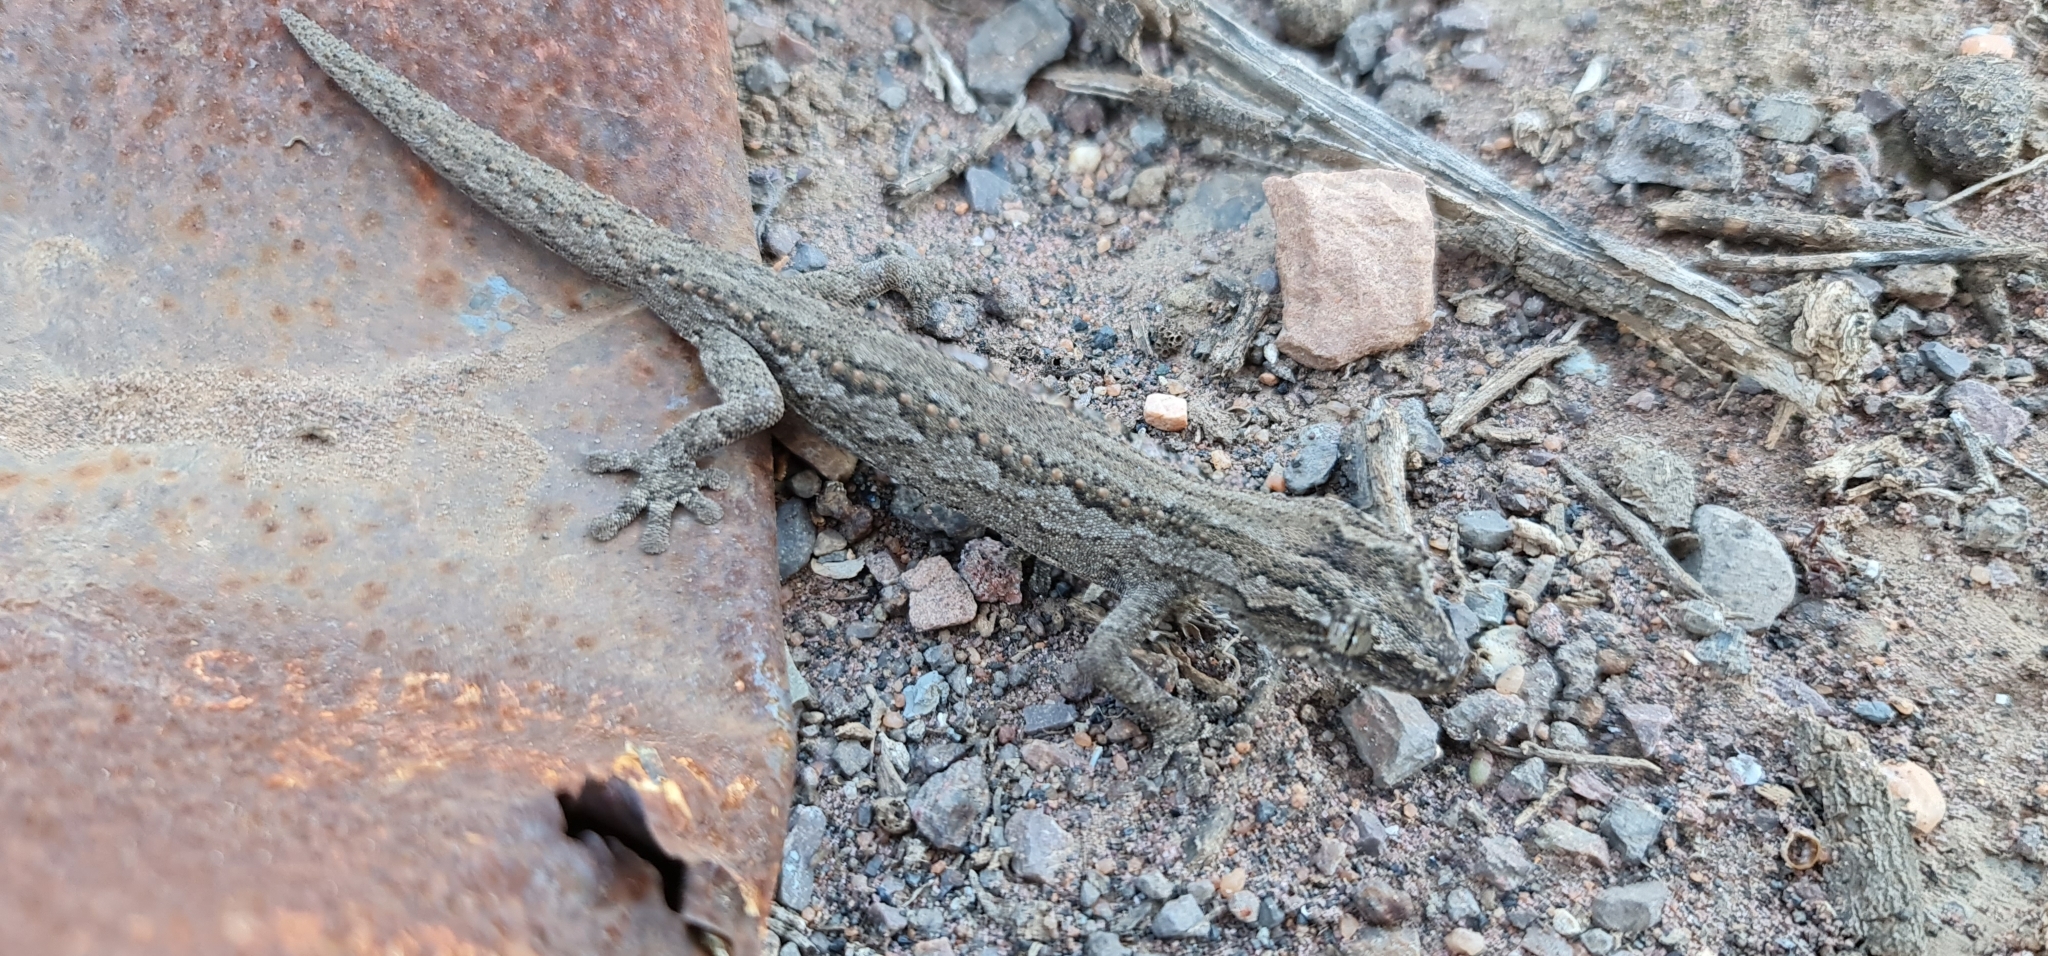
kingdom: Animalia
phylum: Chordata
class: Squamata
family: Diplodactylidae
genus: Strophurus
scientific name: Strophurus intermedius
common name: Eastern spiny-tailed gecko
